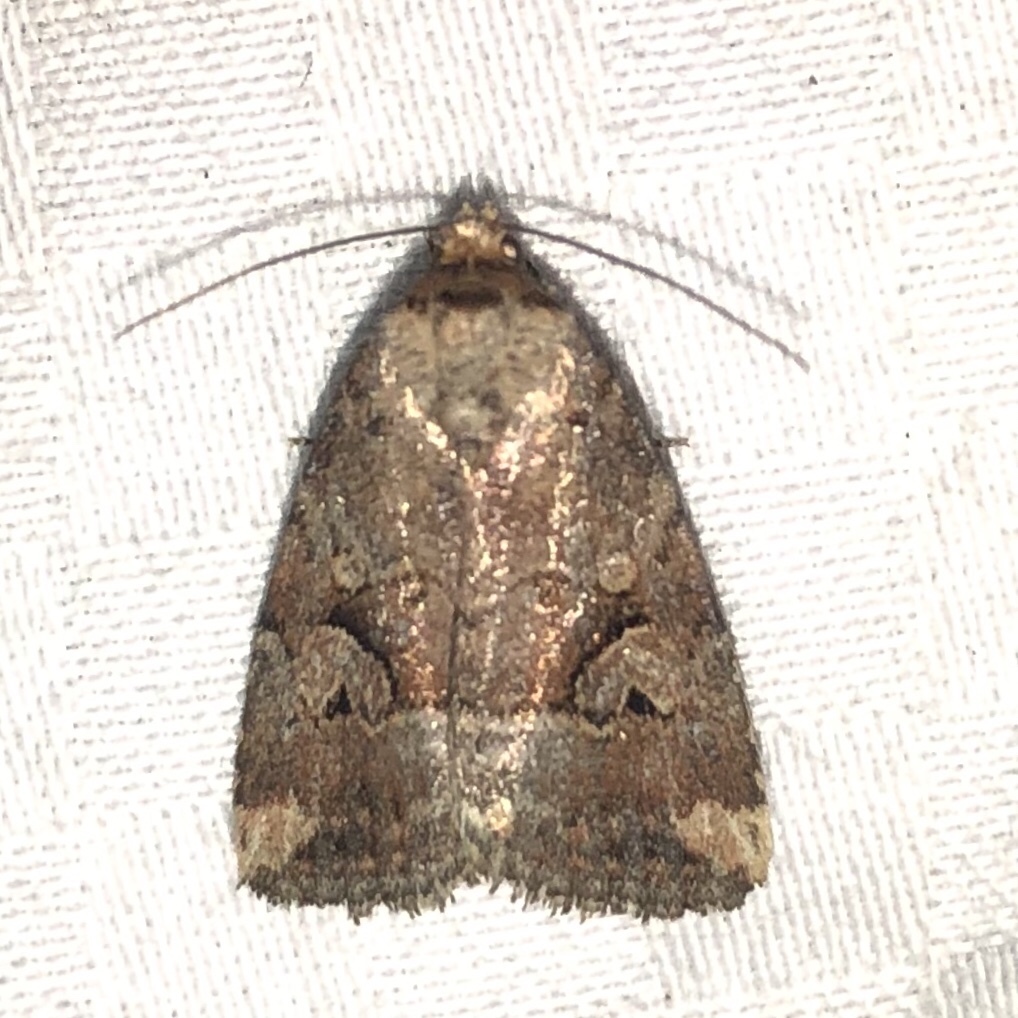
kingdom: Animalia
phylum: Arthropoda
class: Insecta
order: Lepidoptera
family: Noctuidae
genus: Elaphria
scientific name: Elaphria alapallida
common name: Pale-winged midget
